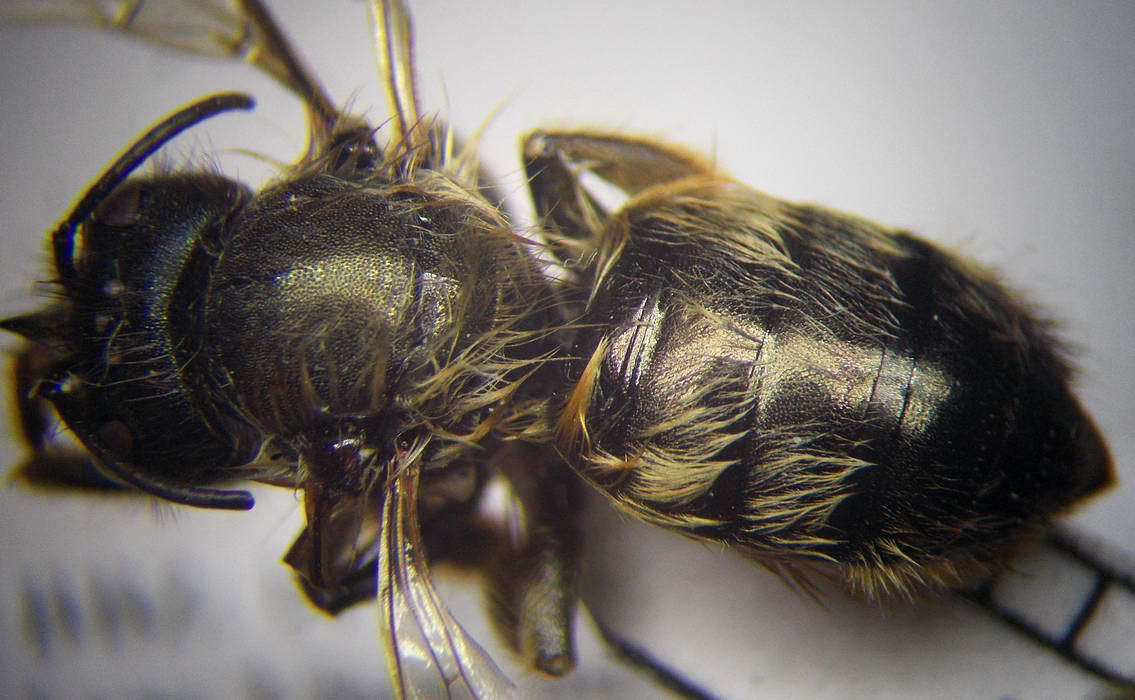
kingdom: Animalia
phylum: Arthropoda
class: Insecta
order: Hymenoptera
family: Megachilidae
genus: Osmia
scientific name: Osmia bicornis
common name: Red mason bee
